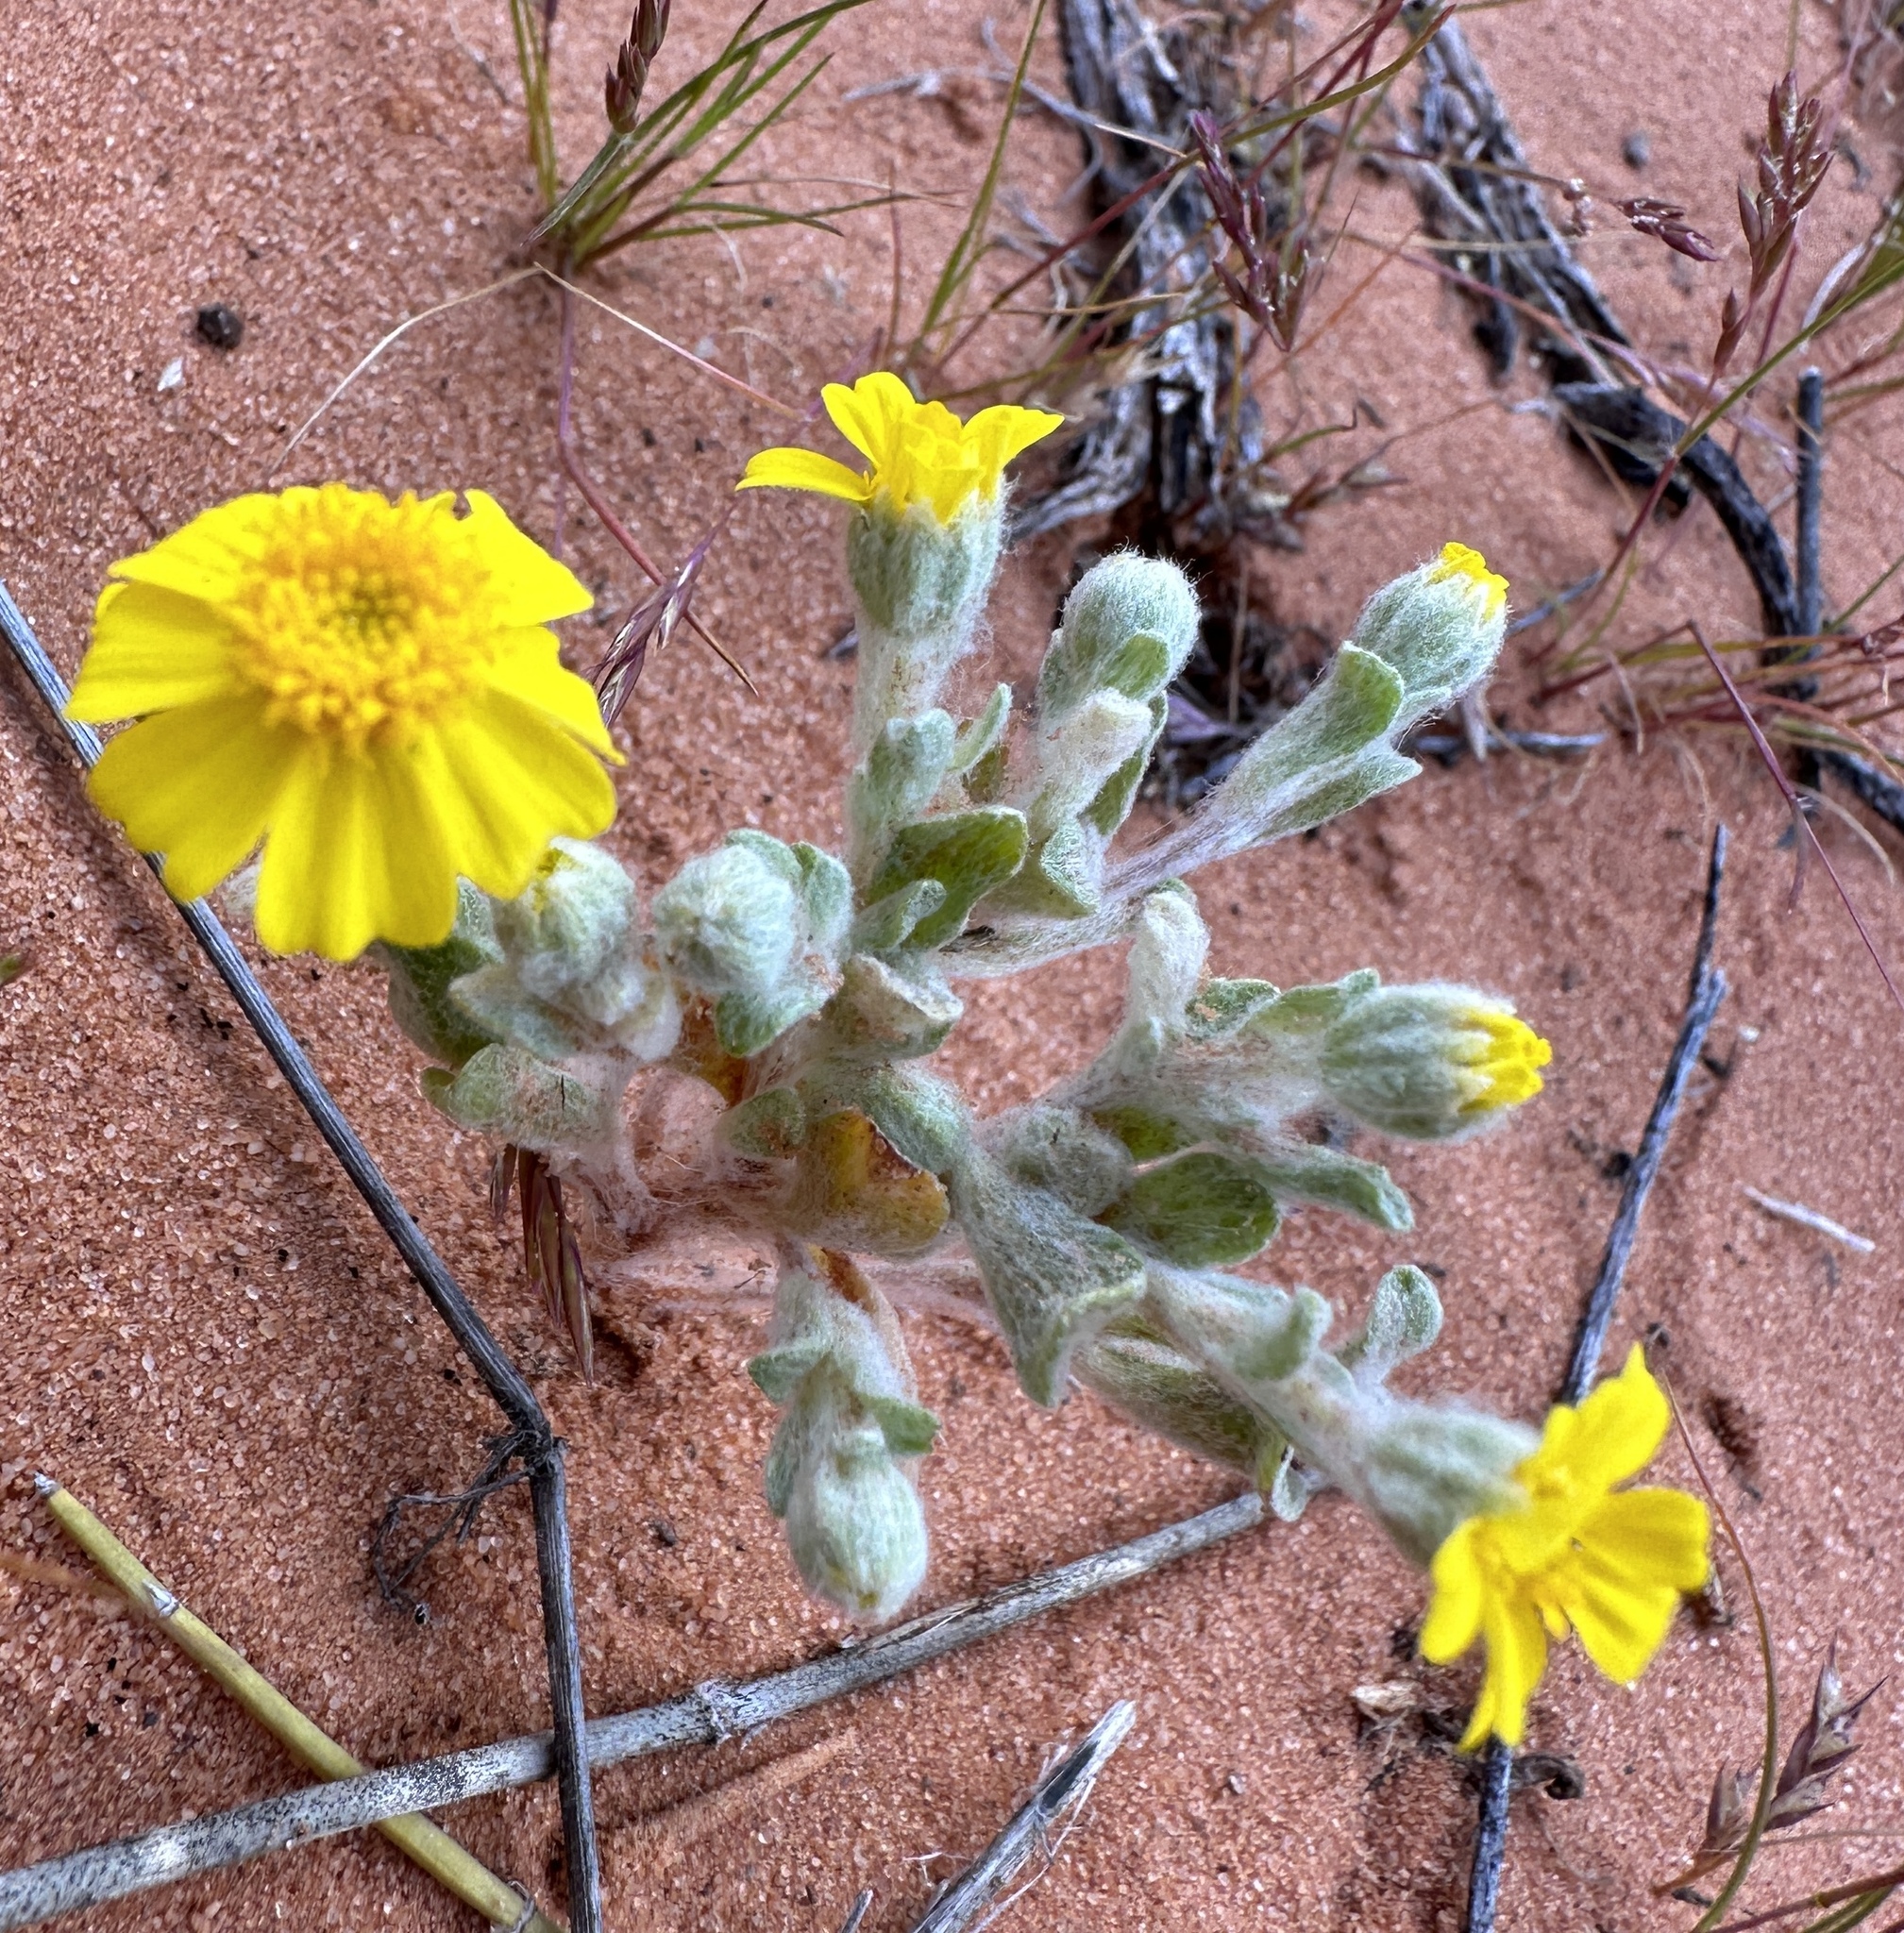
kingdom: Plantae
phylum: Tracheophyta
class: Magnoliopsida
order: Asterales
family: Asteraceae
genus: Eriophyllum
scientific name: Eriophyllum wallacei
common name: Wallace's woolly daisy
